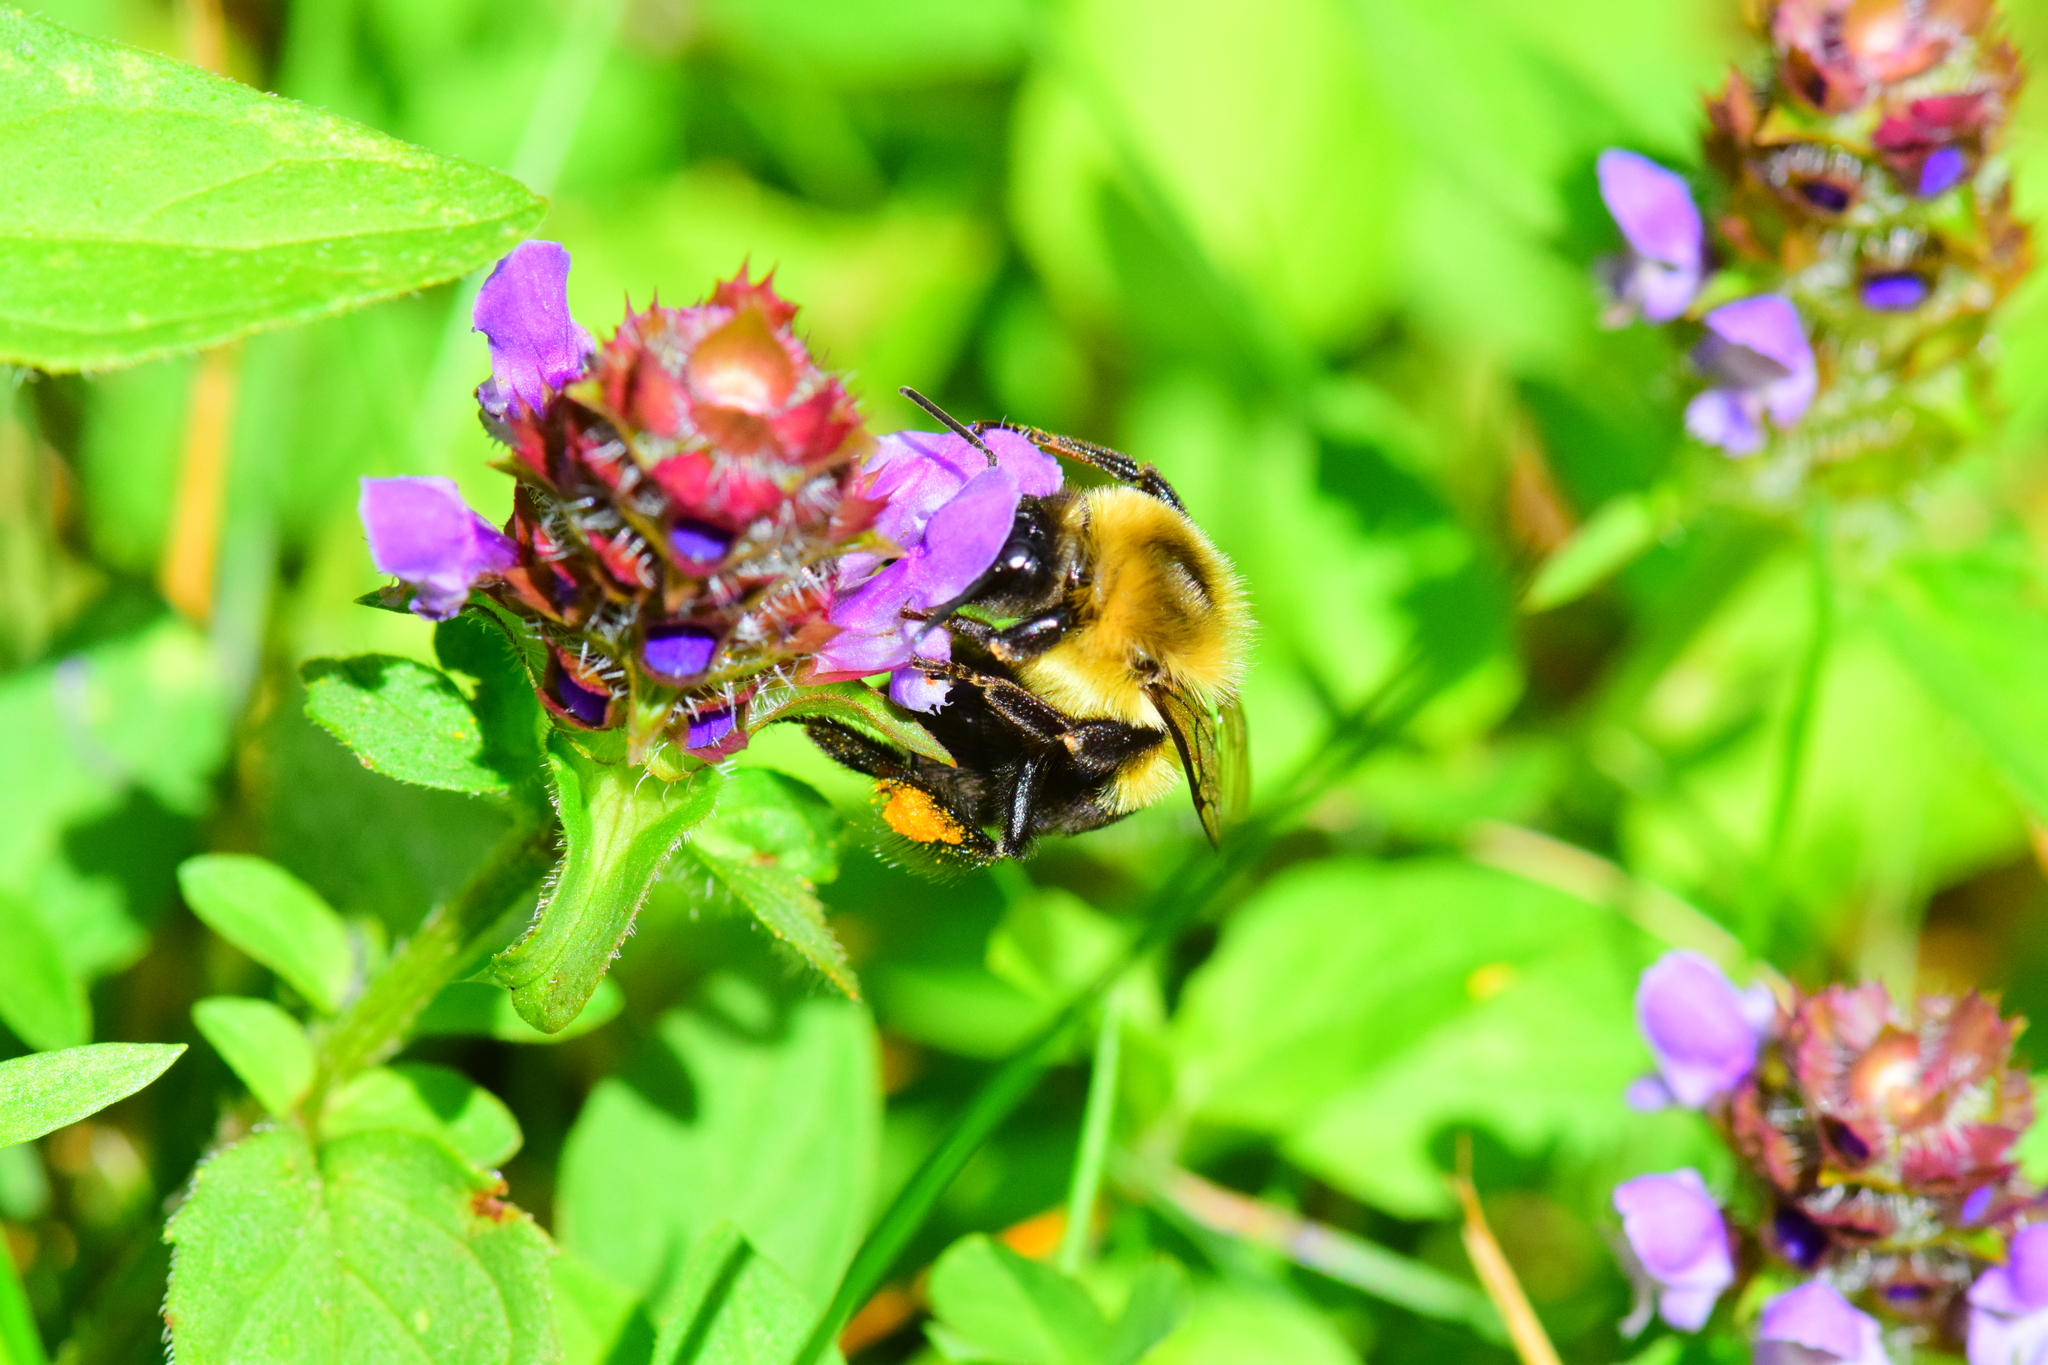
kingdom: Animalia
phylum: Arthropoda
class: Insecta
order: Hymenoptera
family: Apidae
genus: Bombus
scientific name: Bombus impatiens
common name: Common eastern bumble bee
